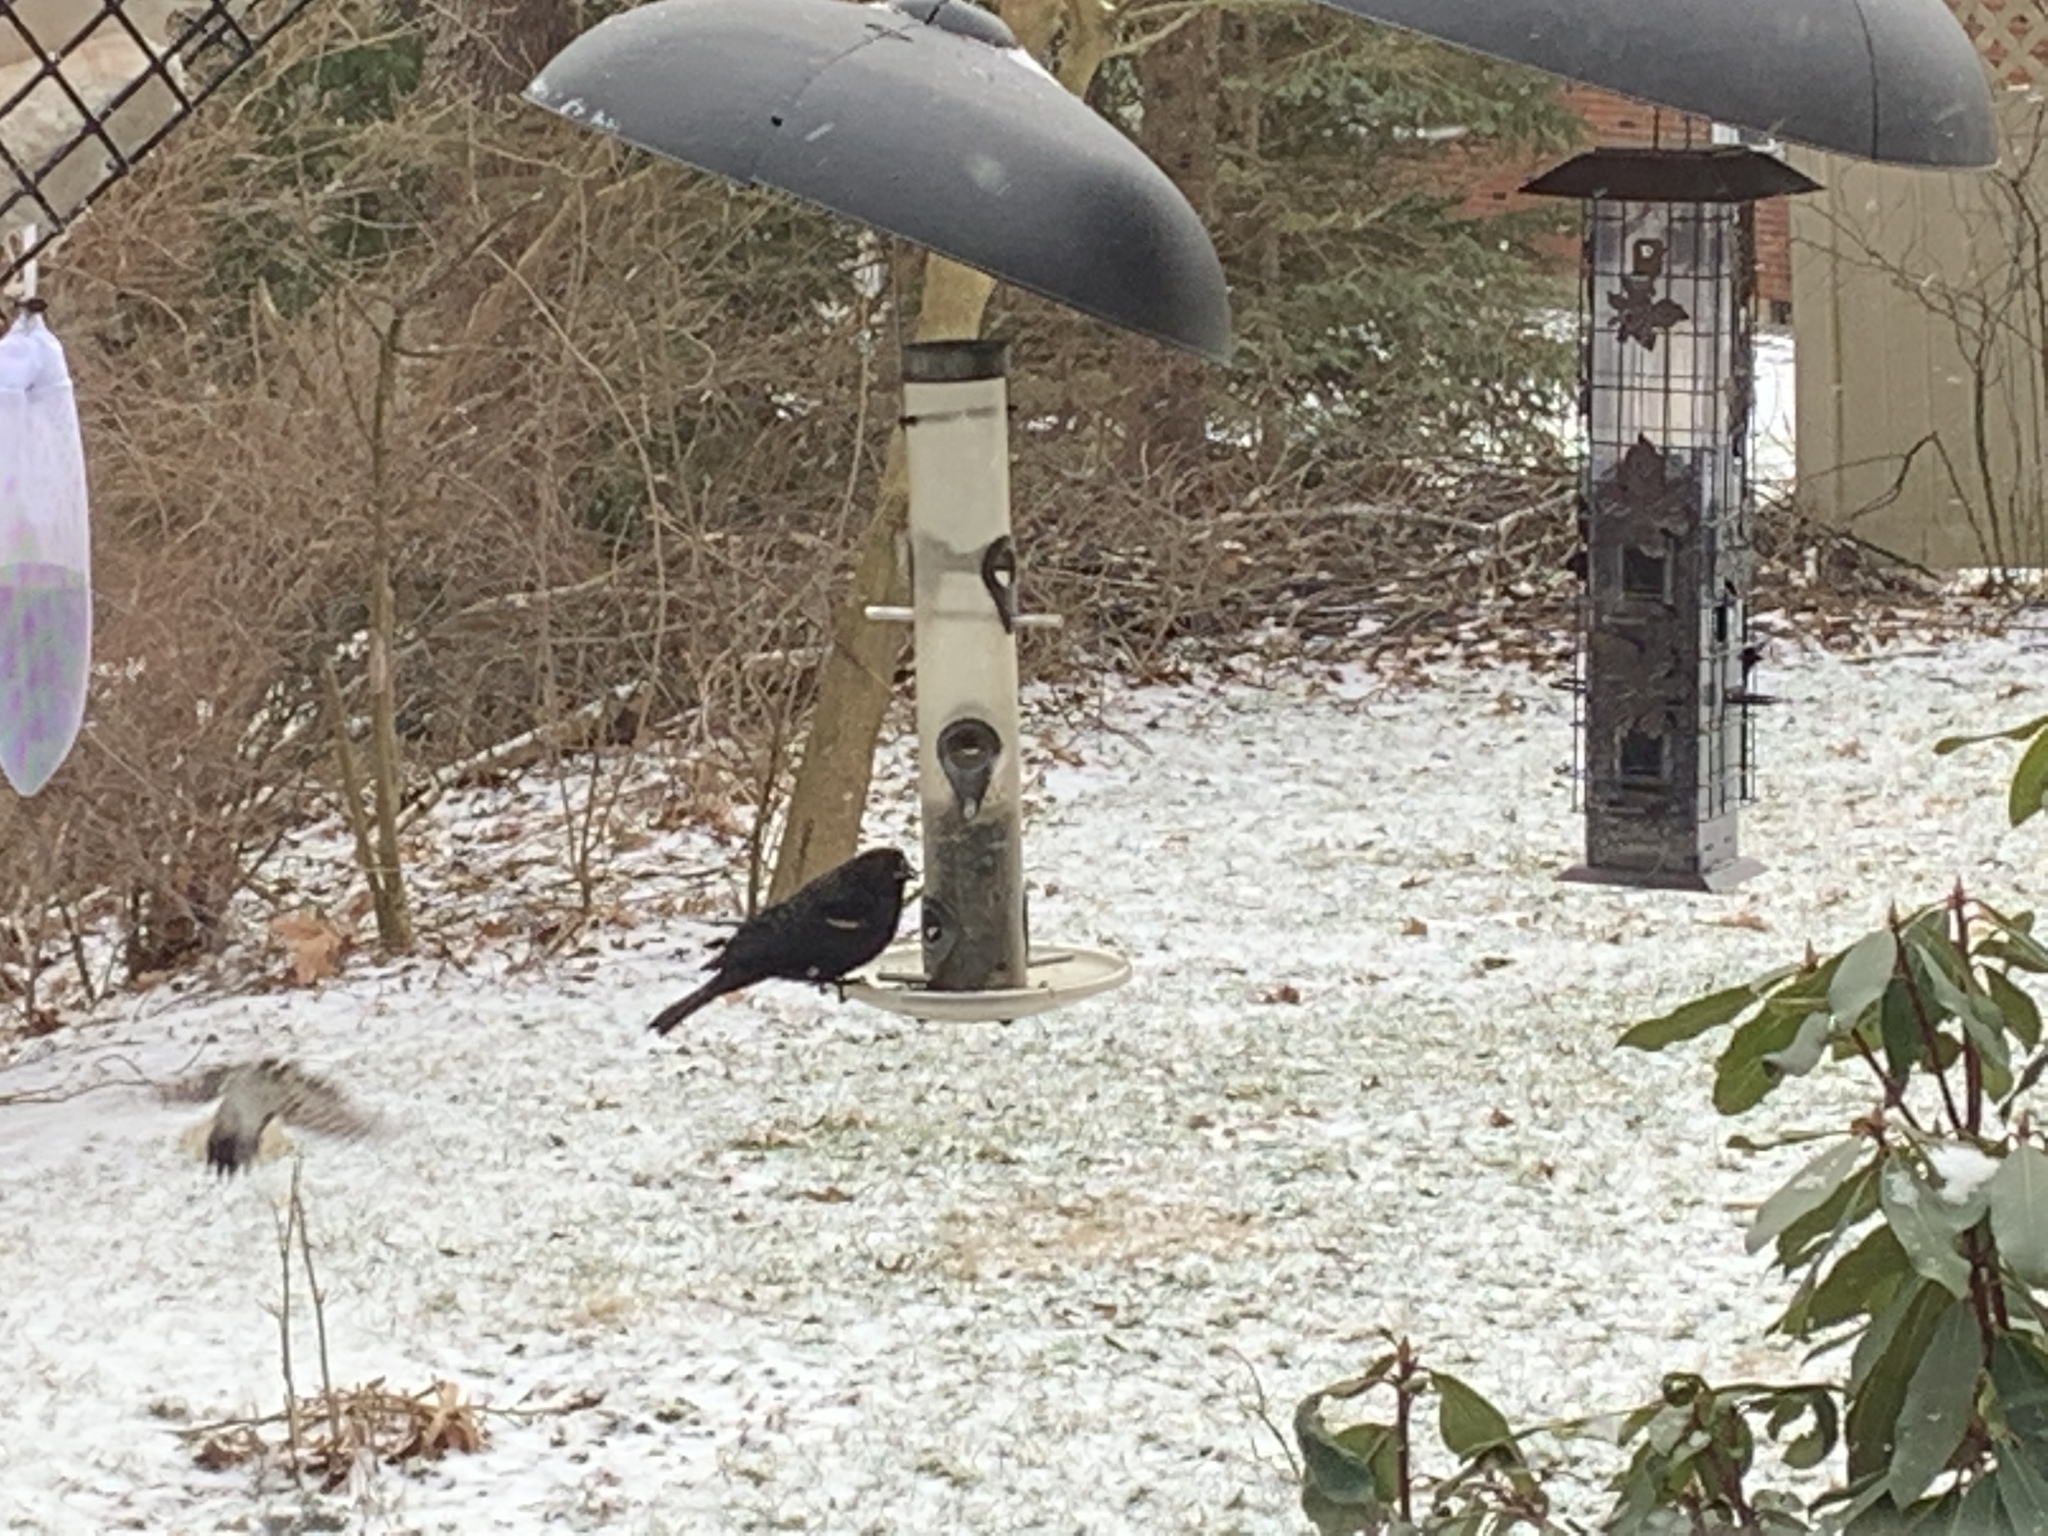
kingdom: Animalia
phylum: Chordata
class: Aves
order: Passeriformes
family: Icteridae
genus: Agelaius
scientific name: Agelaius phoeniceus
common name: Red-winged blackbird
